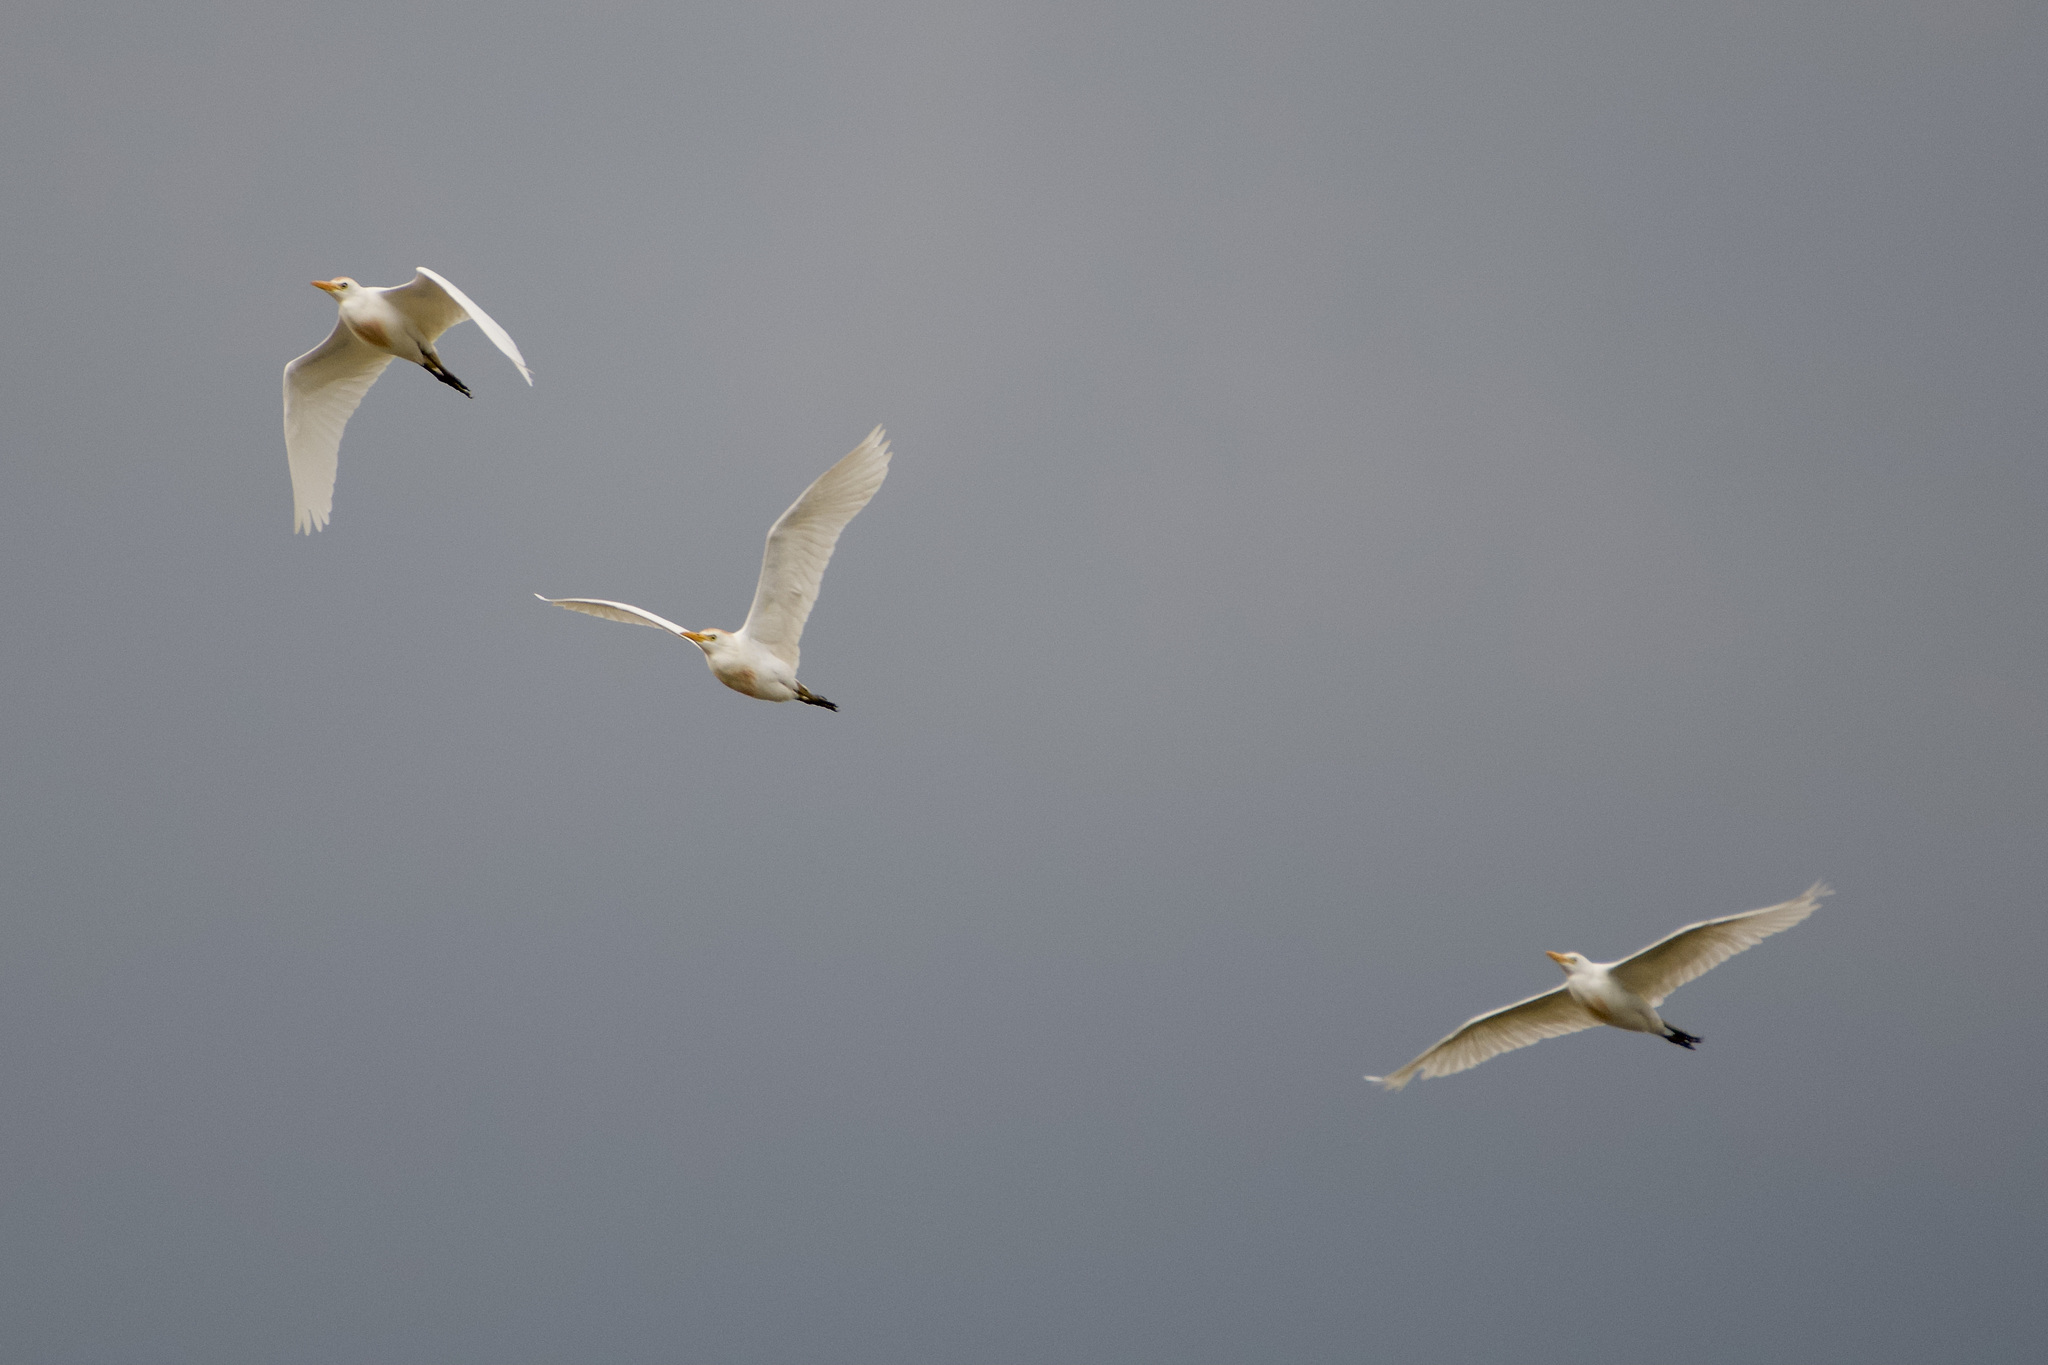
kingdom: Animalia
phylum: Chordata
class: Aves
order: Pelecaniformes
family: Ardeidae
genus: Bubulcus
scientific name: Bubulcus ibis
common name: Cattle egret
